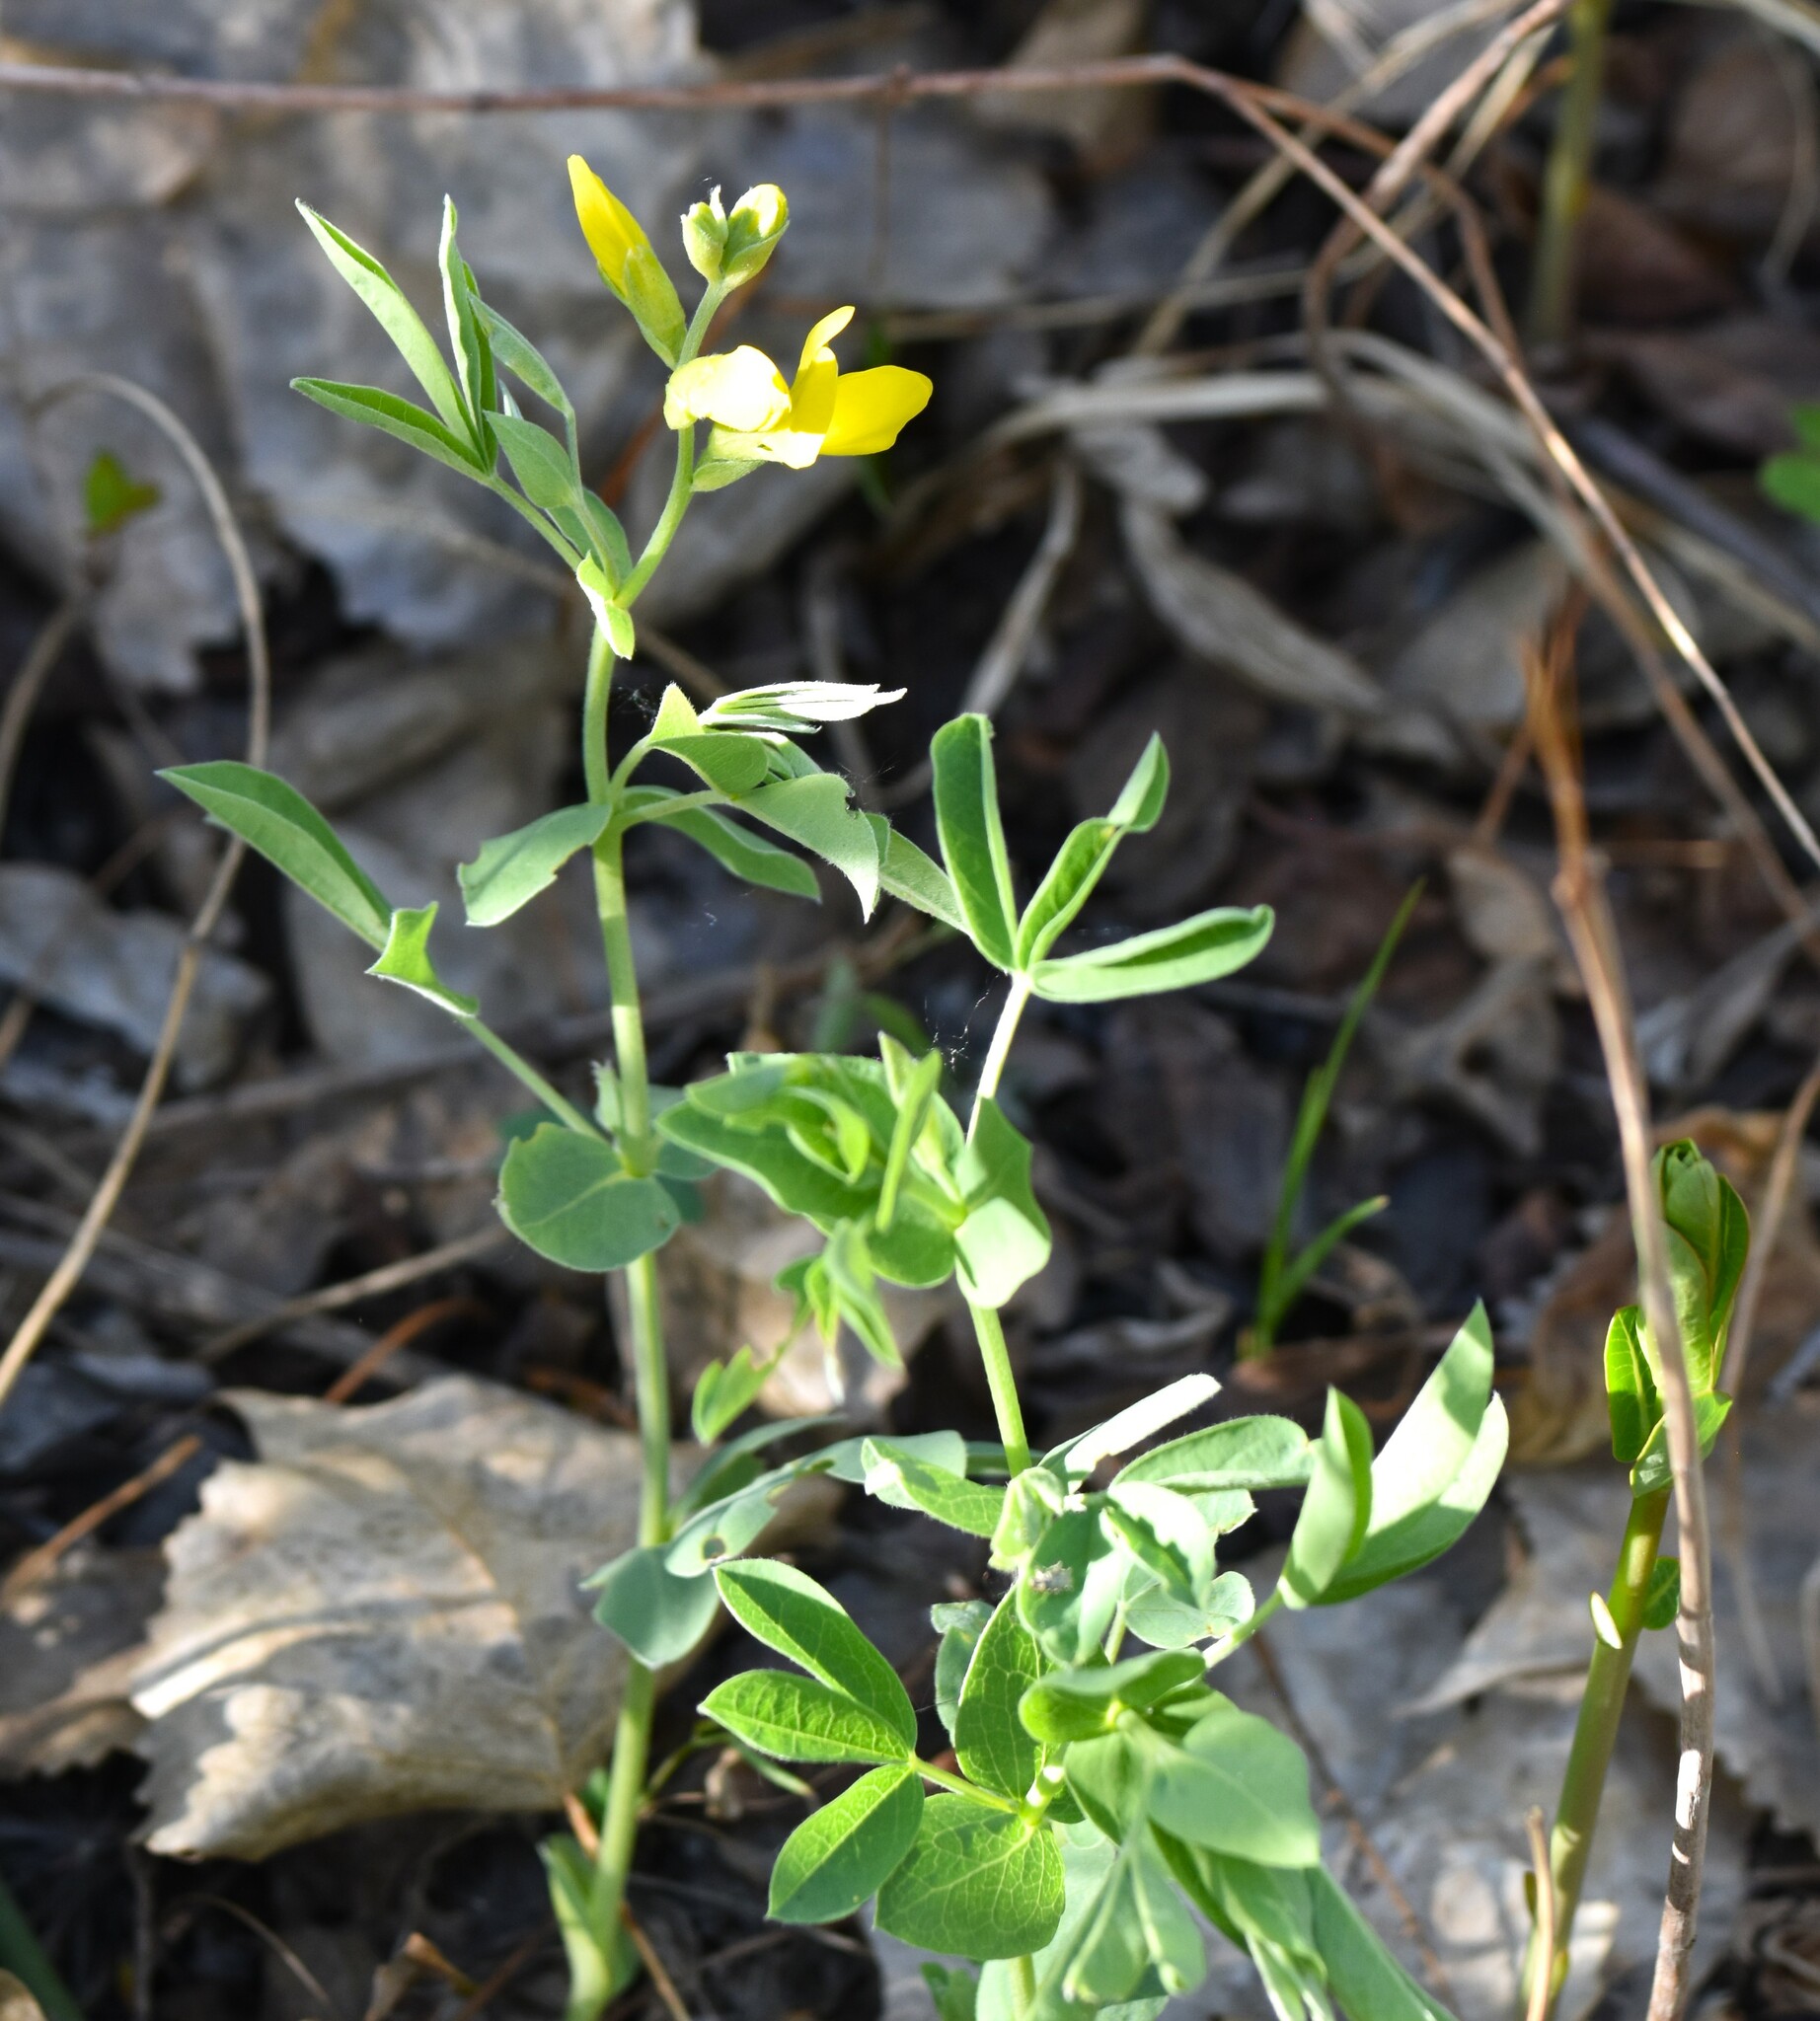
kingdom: Plantae
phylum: Tracheophyta
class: Magnoliopsida
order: Fabales
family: Fabaceae
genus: Thermopsis
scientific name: Thermopsis rhombifolia
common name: Circle-pod-pea
